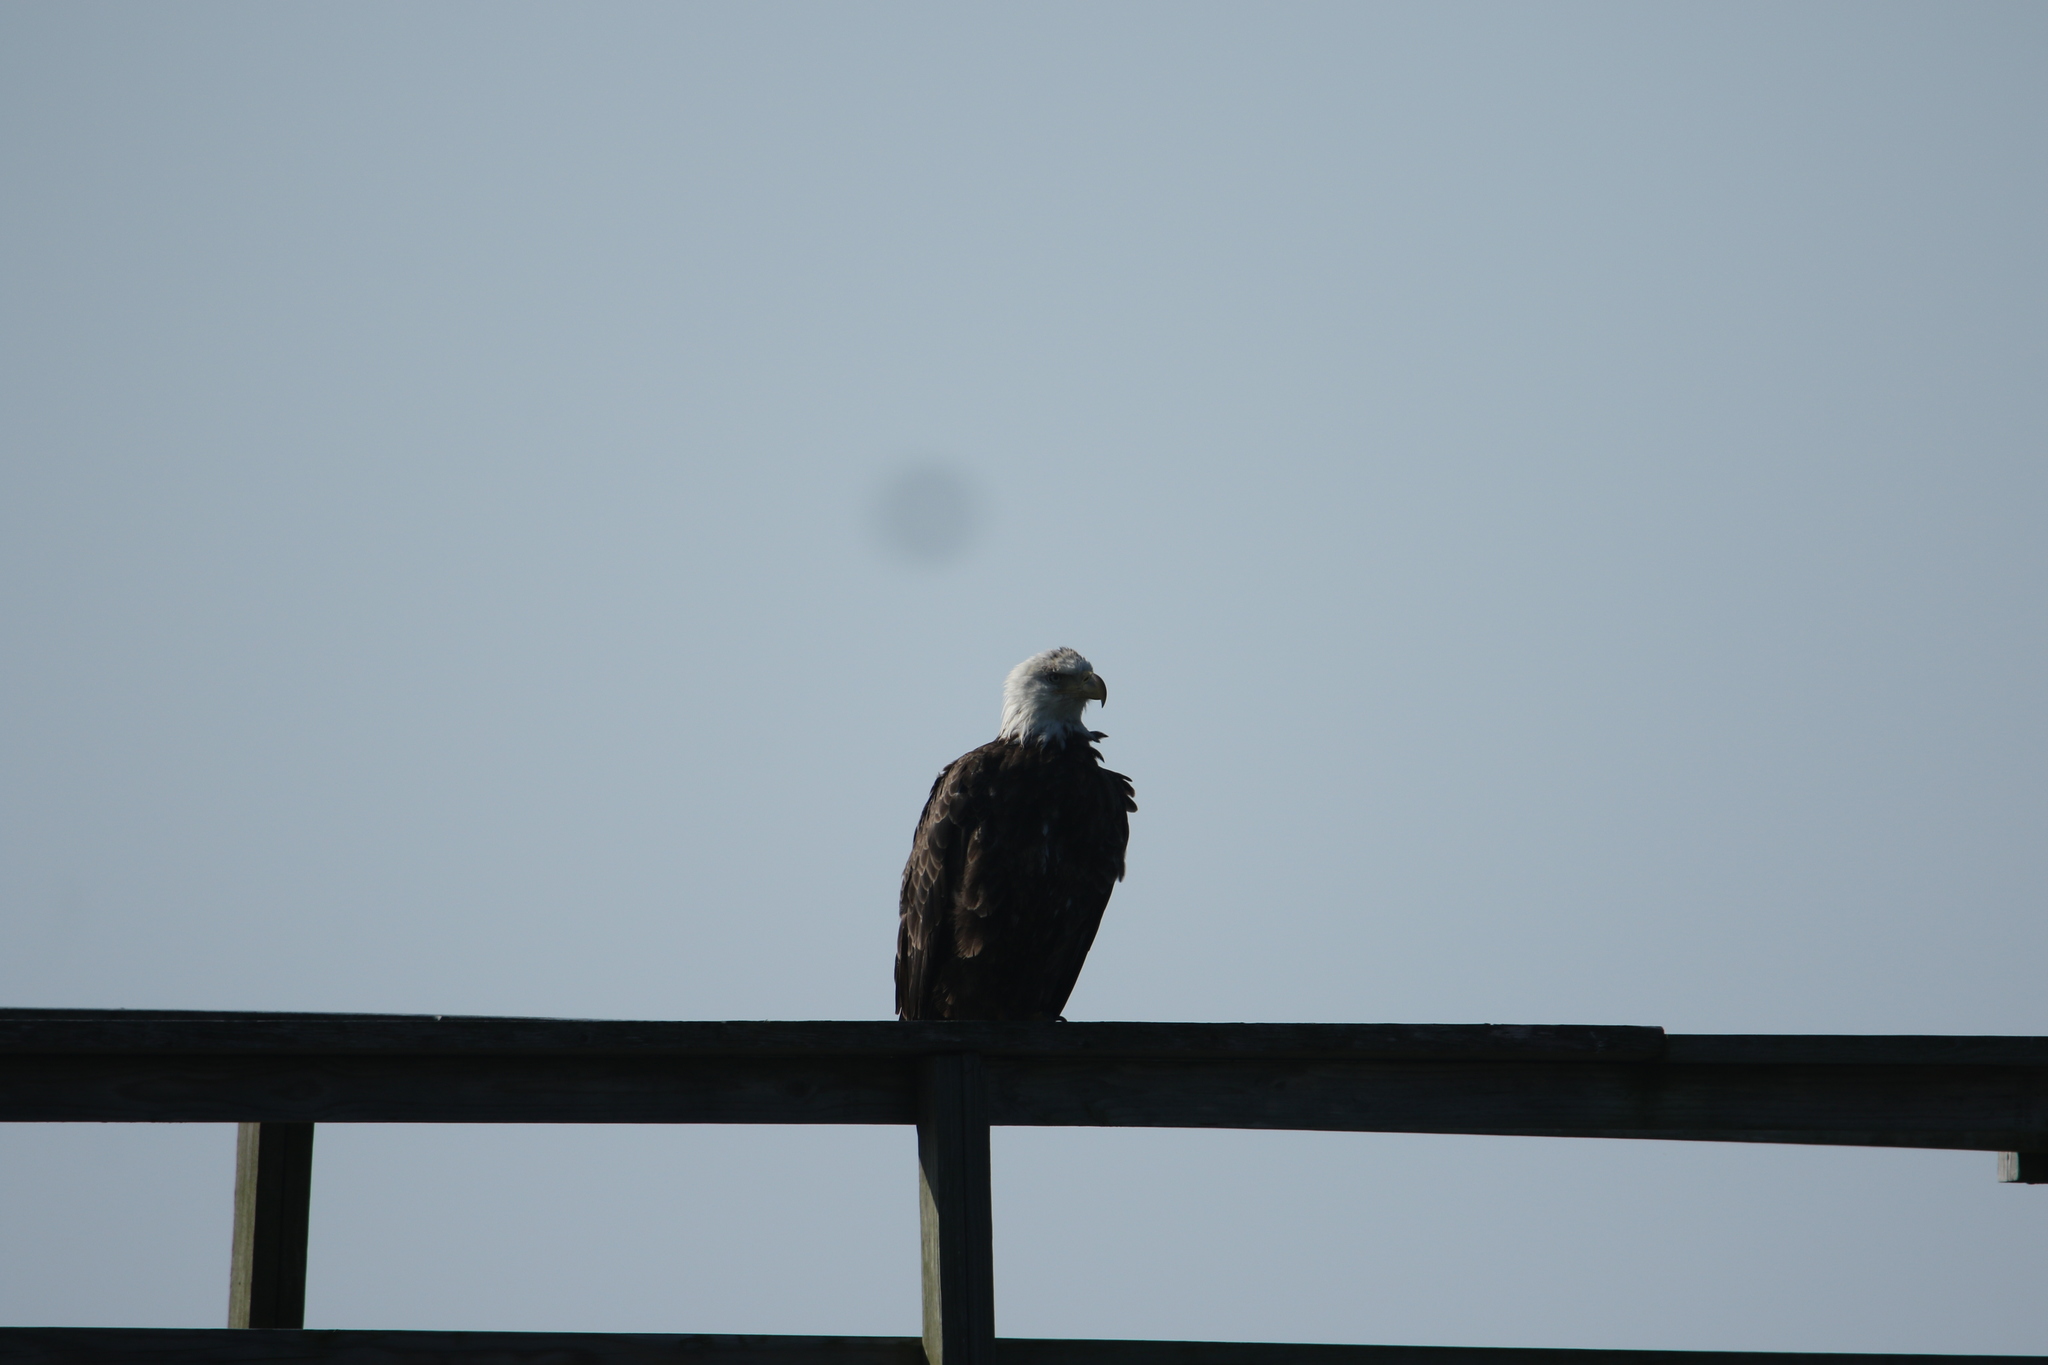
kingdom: Animalia
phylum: Chordata
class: Aves
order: Accipitriformes
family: Accipitridae
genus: Haliaeetus
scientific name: Haliaeetus leucocephalus
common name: Bald eagle
